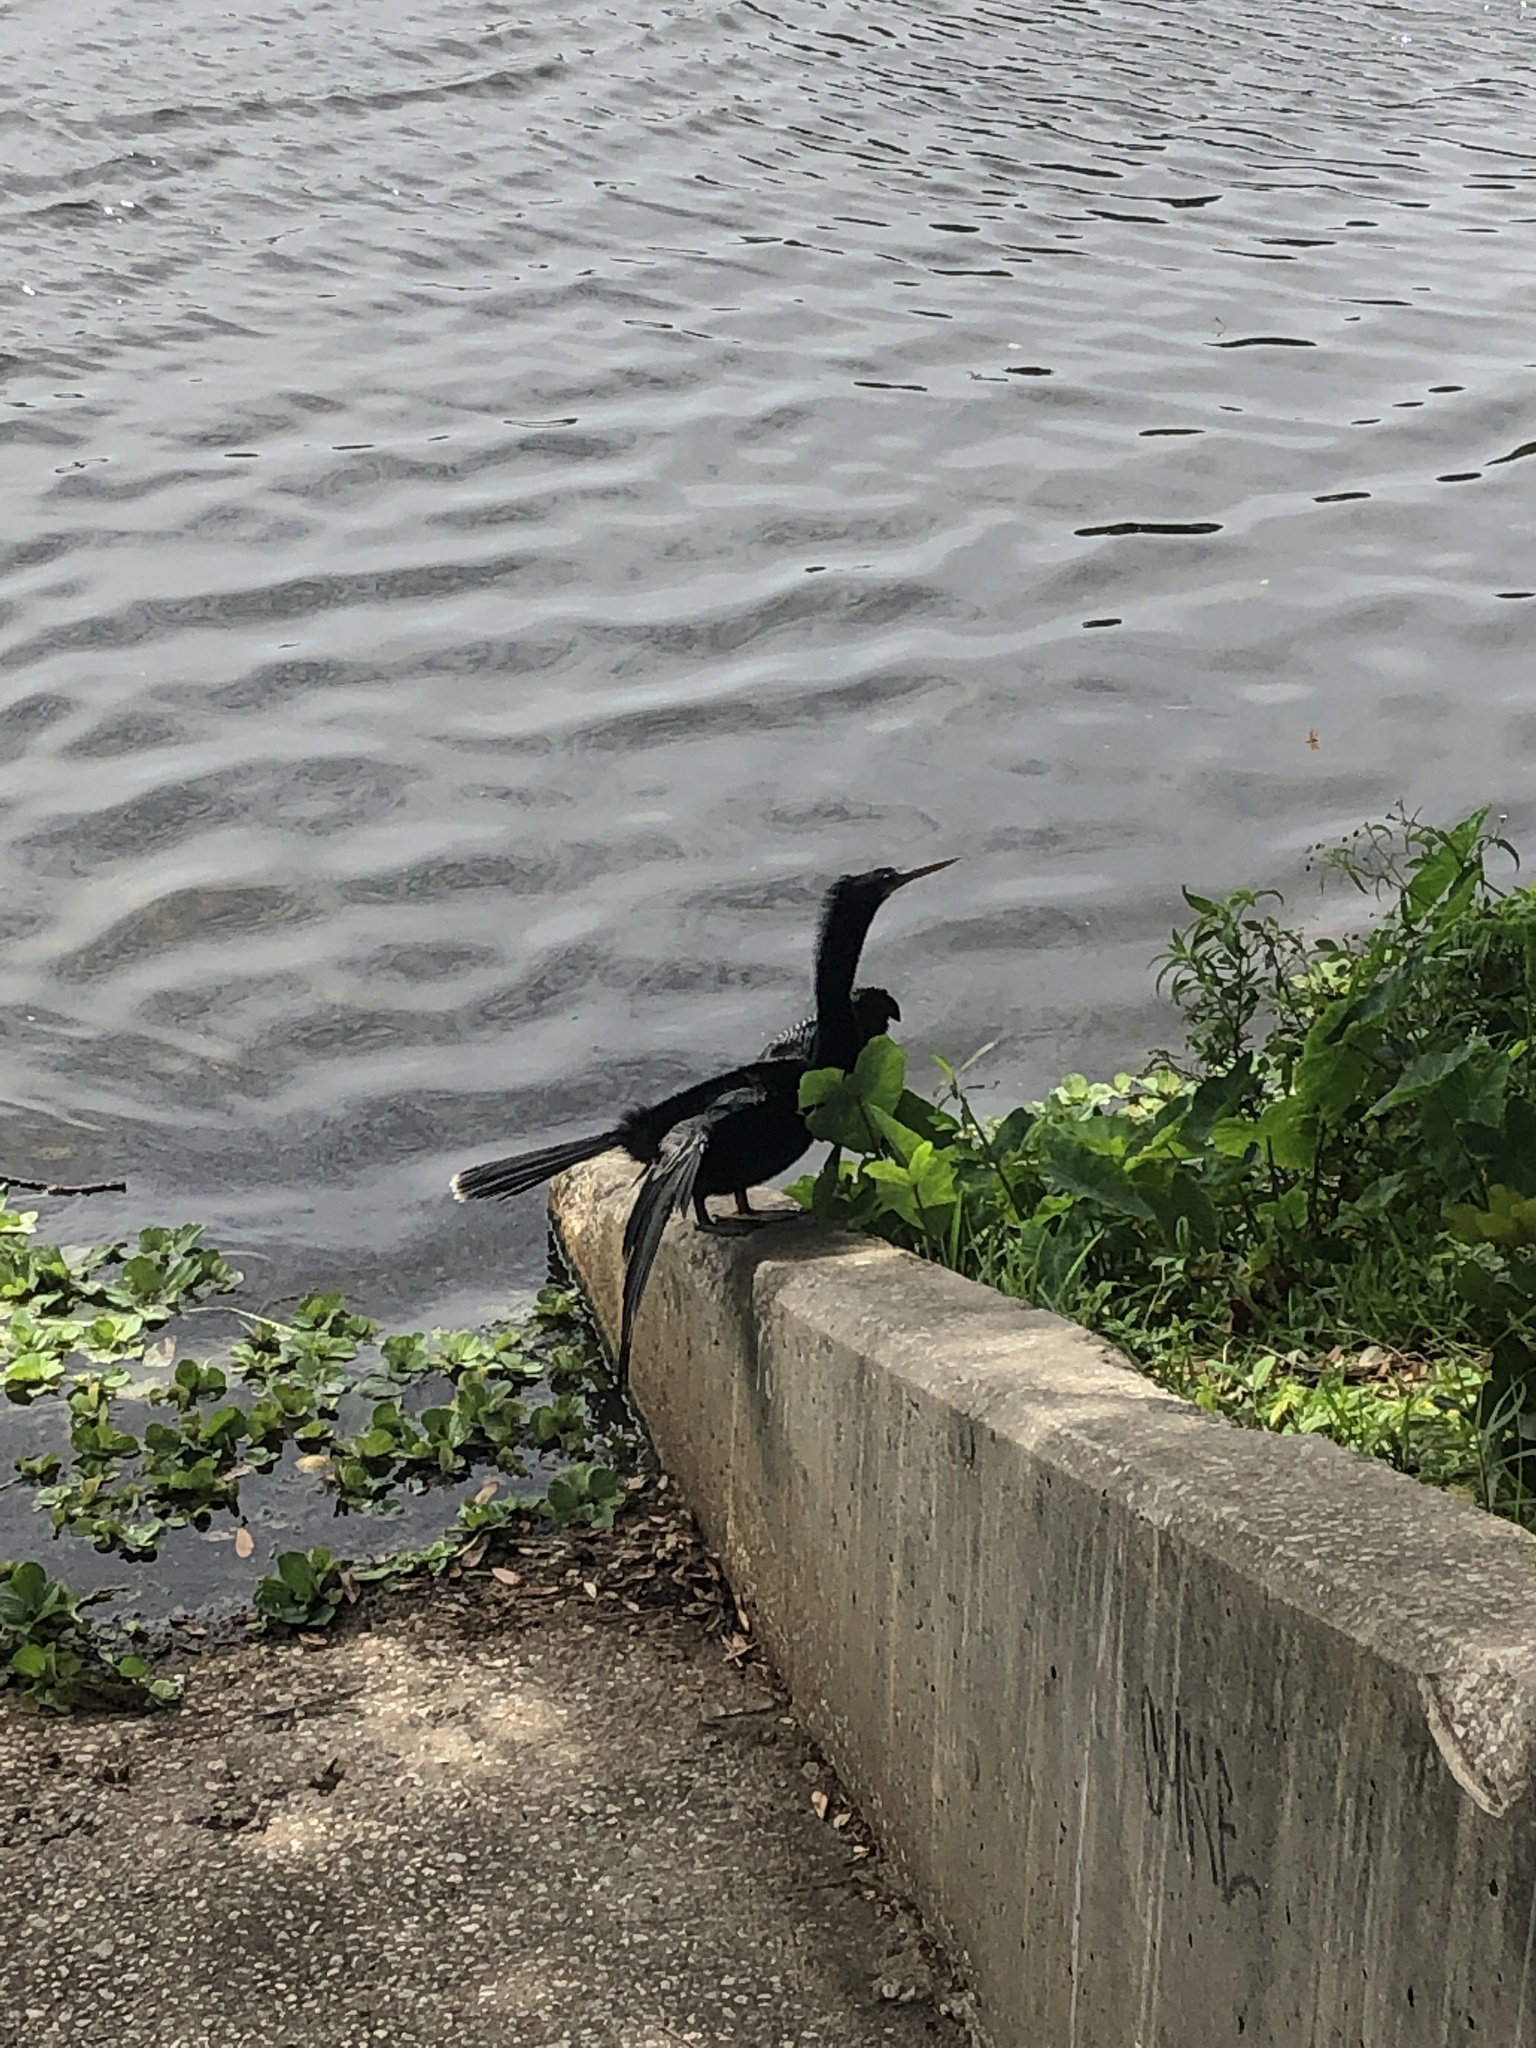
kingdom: Animalia
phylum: Chordata
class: Aves
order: Suliformes
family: Anhingidae
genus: Anhinga
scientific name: Anhinga anhinga
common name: Anhinga
